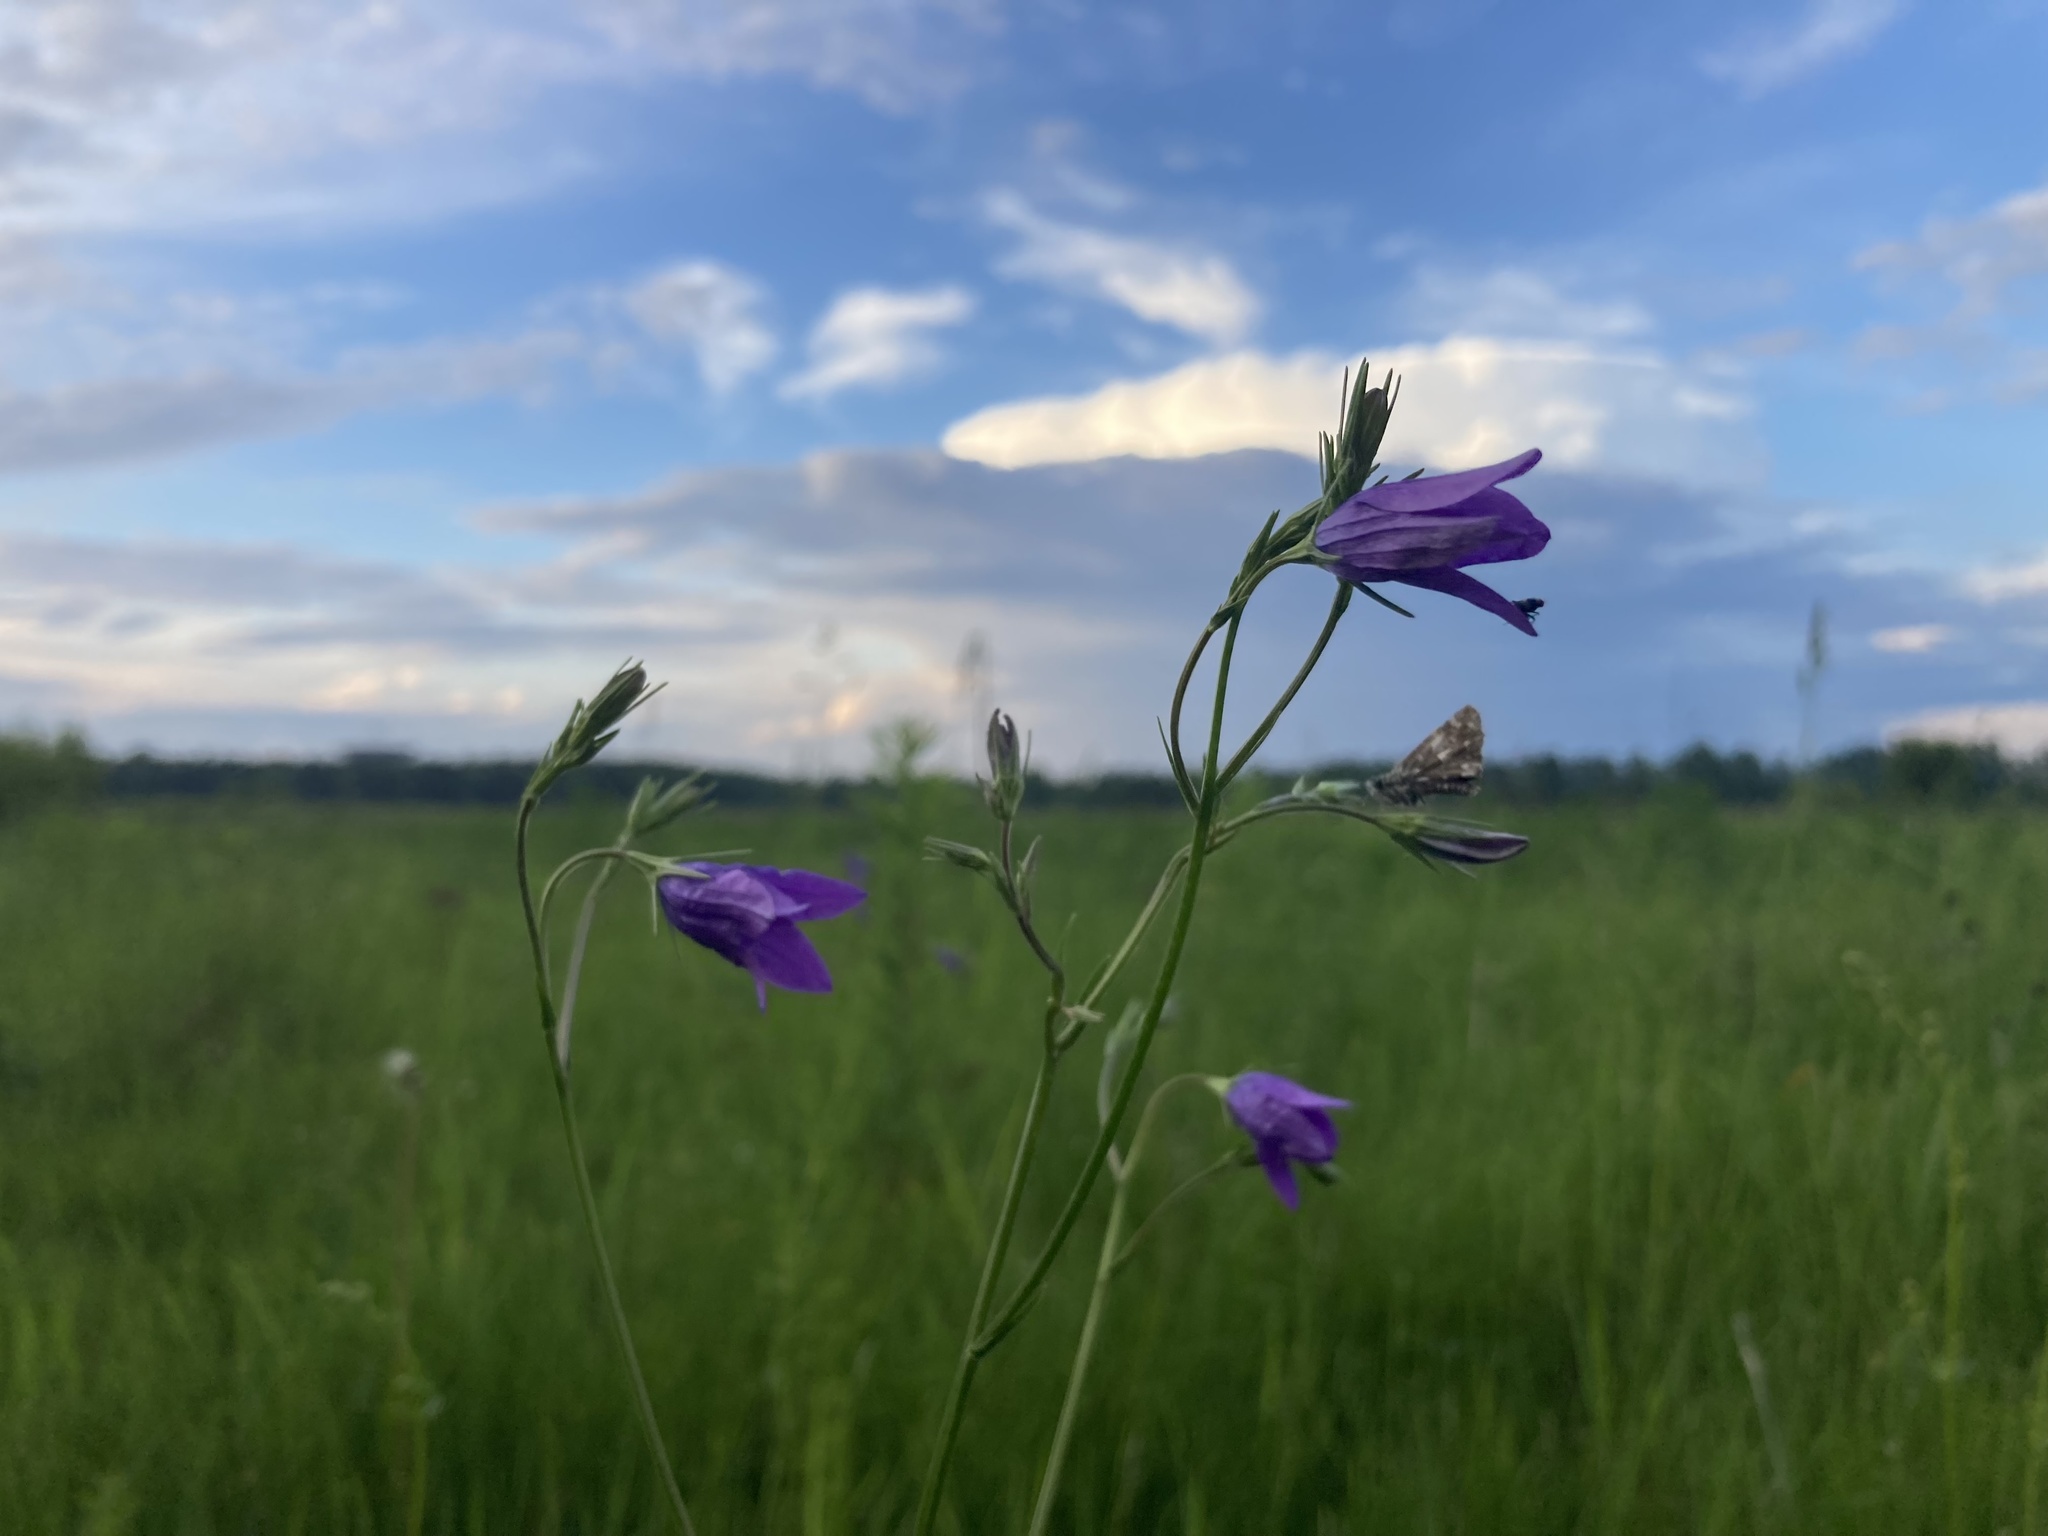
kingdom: Plantae
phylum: Tracheophyta
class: Magnoliopsida
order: Asterales
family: Campanulaceae
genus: Campanula
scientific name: Campanula patula
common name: Spreading bellflower
